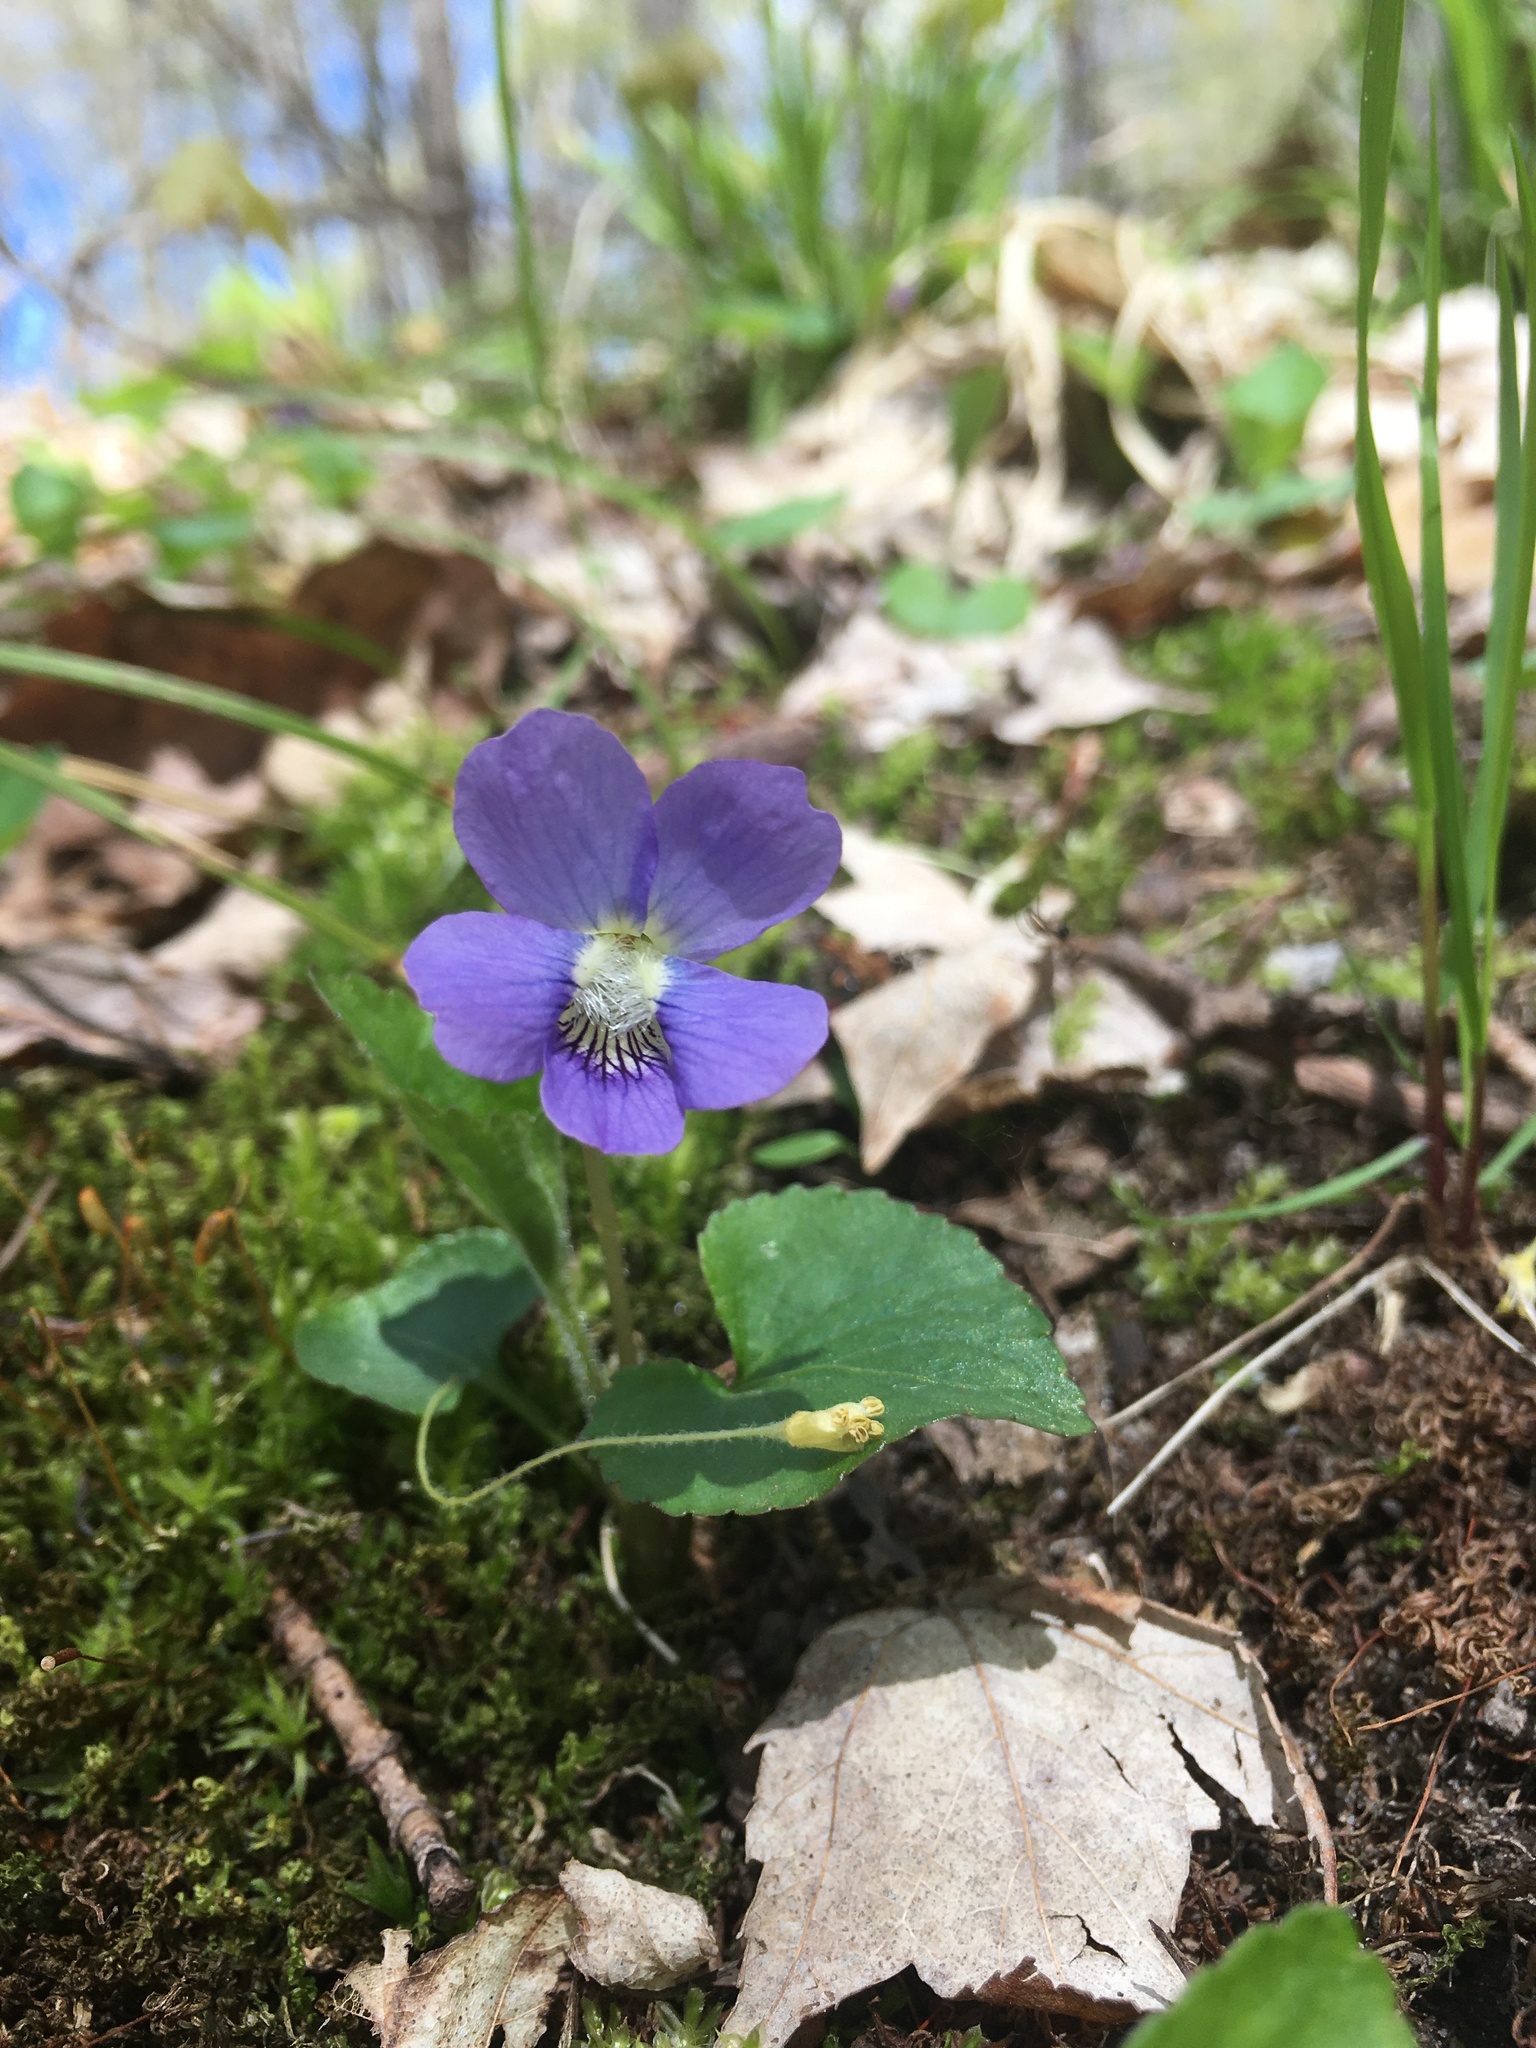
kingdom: Plantae
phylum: Tracheophyta
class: Magnoliopsida
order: Malpighiales
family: Violaceae
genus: Viola
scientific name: Viola sororia
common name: Dooryard violet
